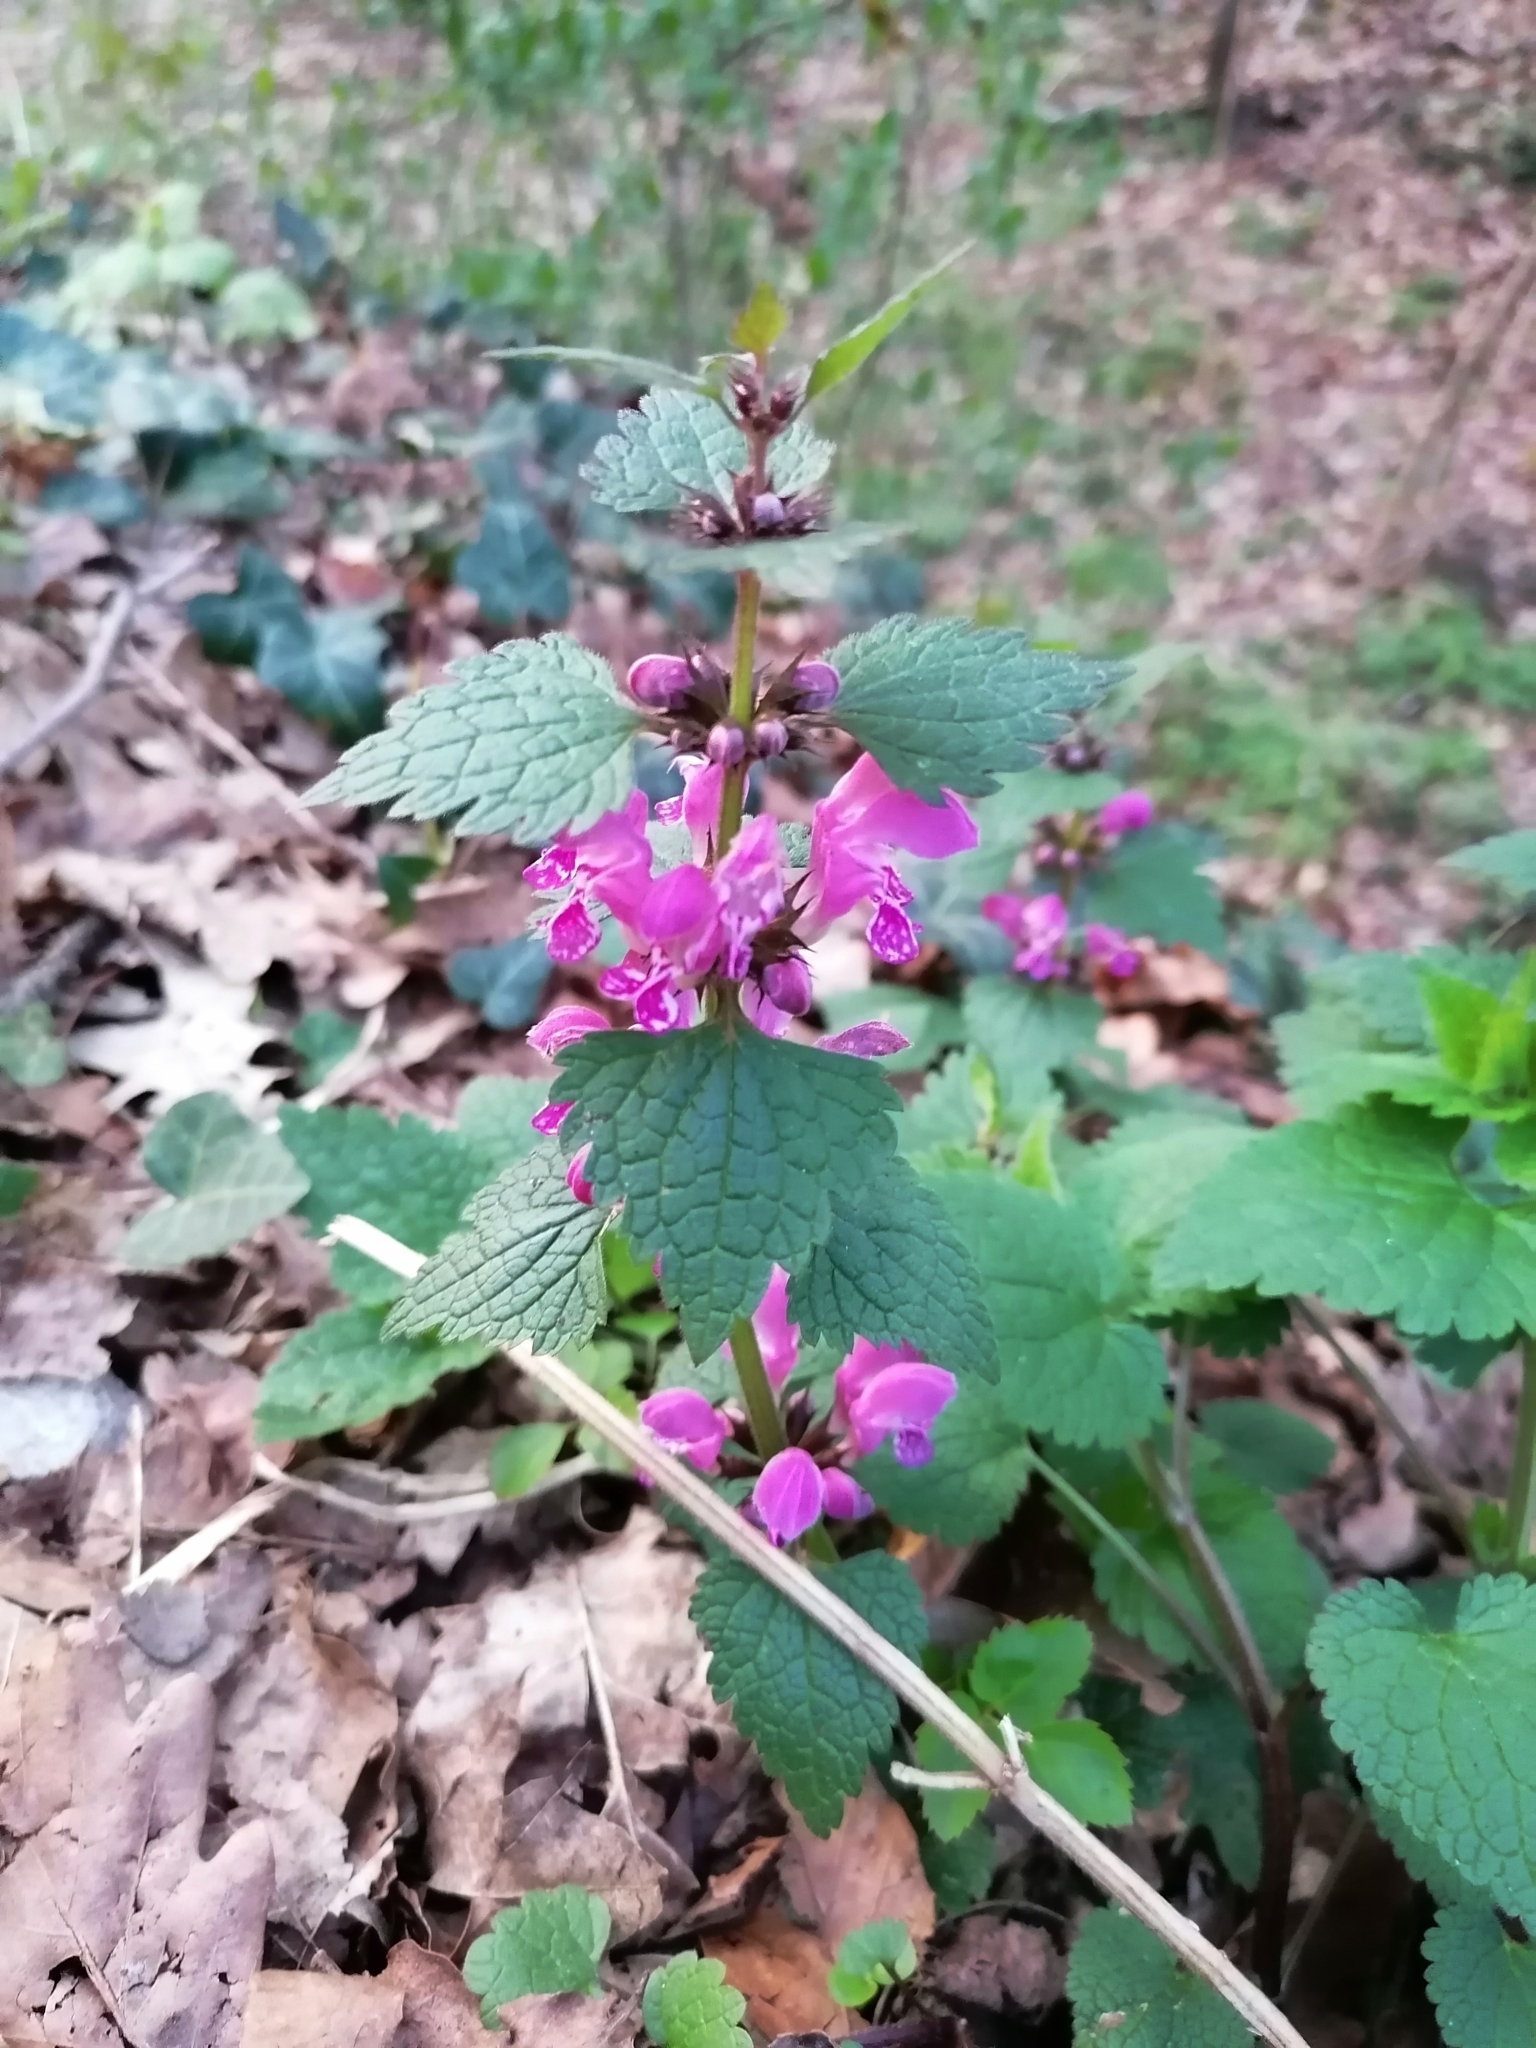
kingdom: Plantae
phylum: Tracheophyta
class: Magnoliopsida
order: Lamiales
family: Lamiaceae
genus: Lamium
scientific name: Lamium maculatum
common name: Spotted dead-nettle
